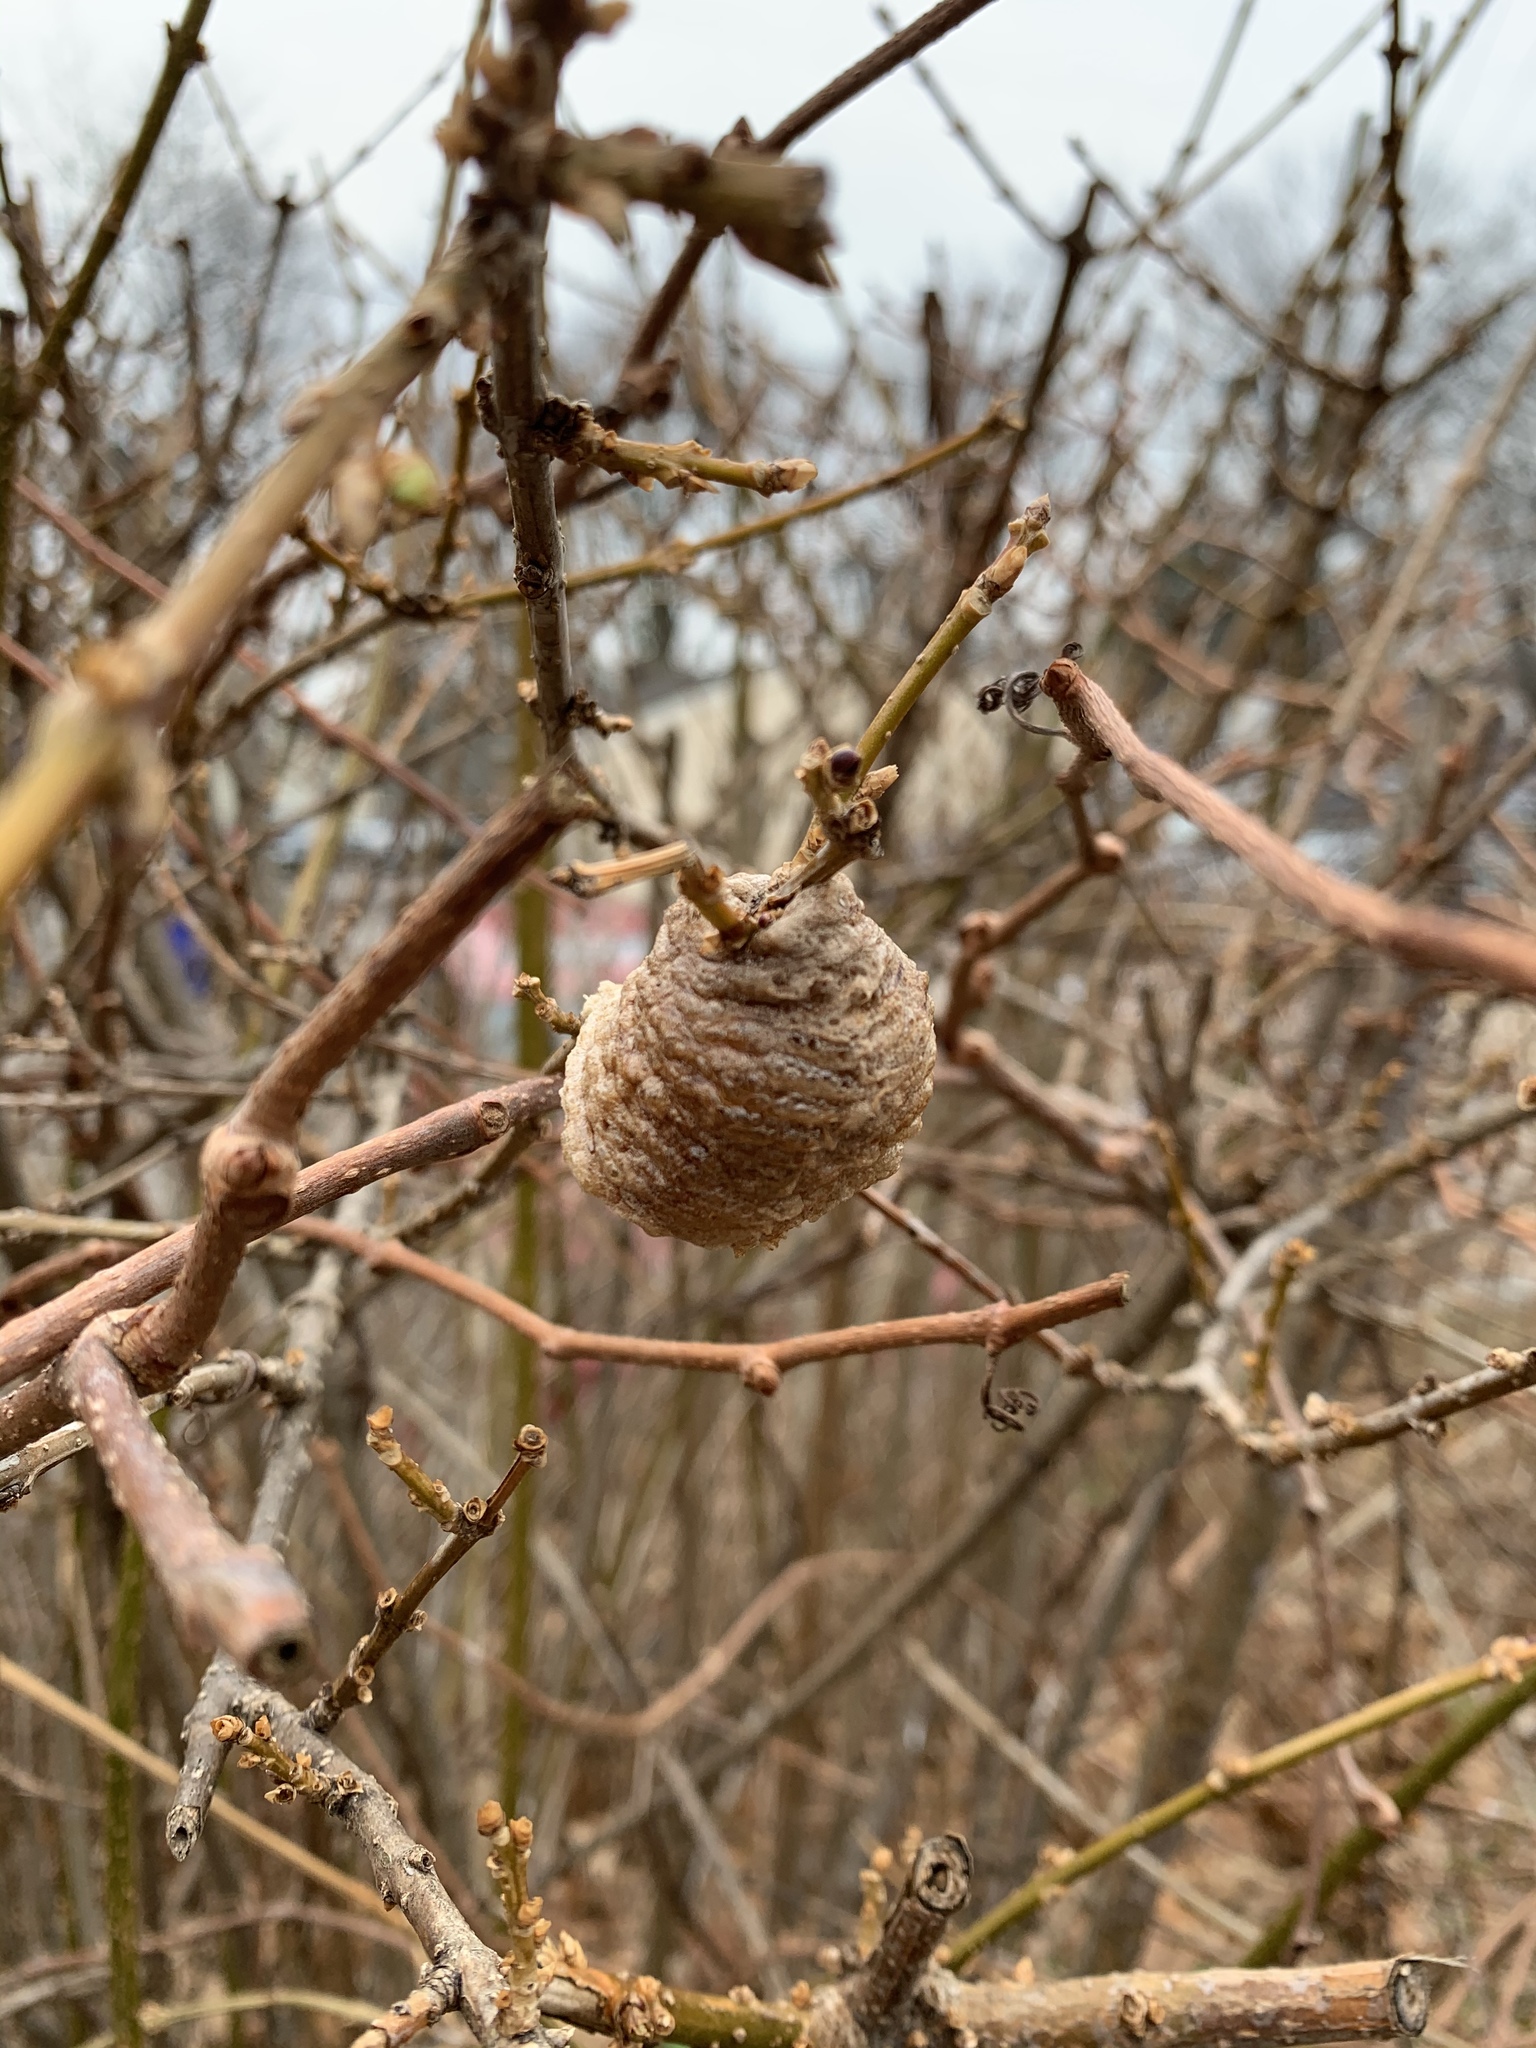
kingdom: Animalia
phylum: Arthropoda
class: Insecta
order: Mantodea
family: Mantidae
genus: Tenodera
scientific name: Tenodera sinensis
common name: Chinese mantis
